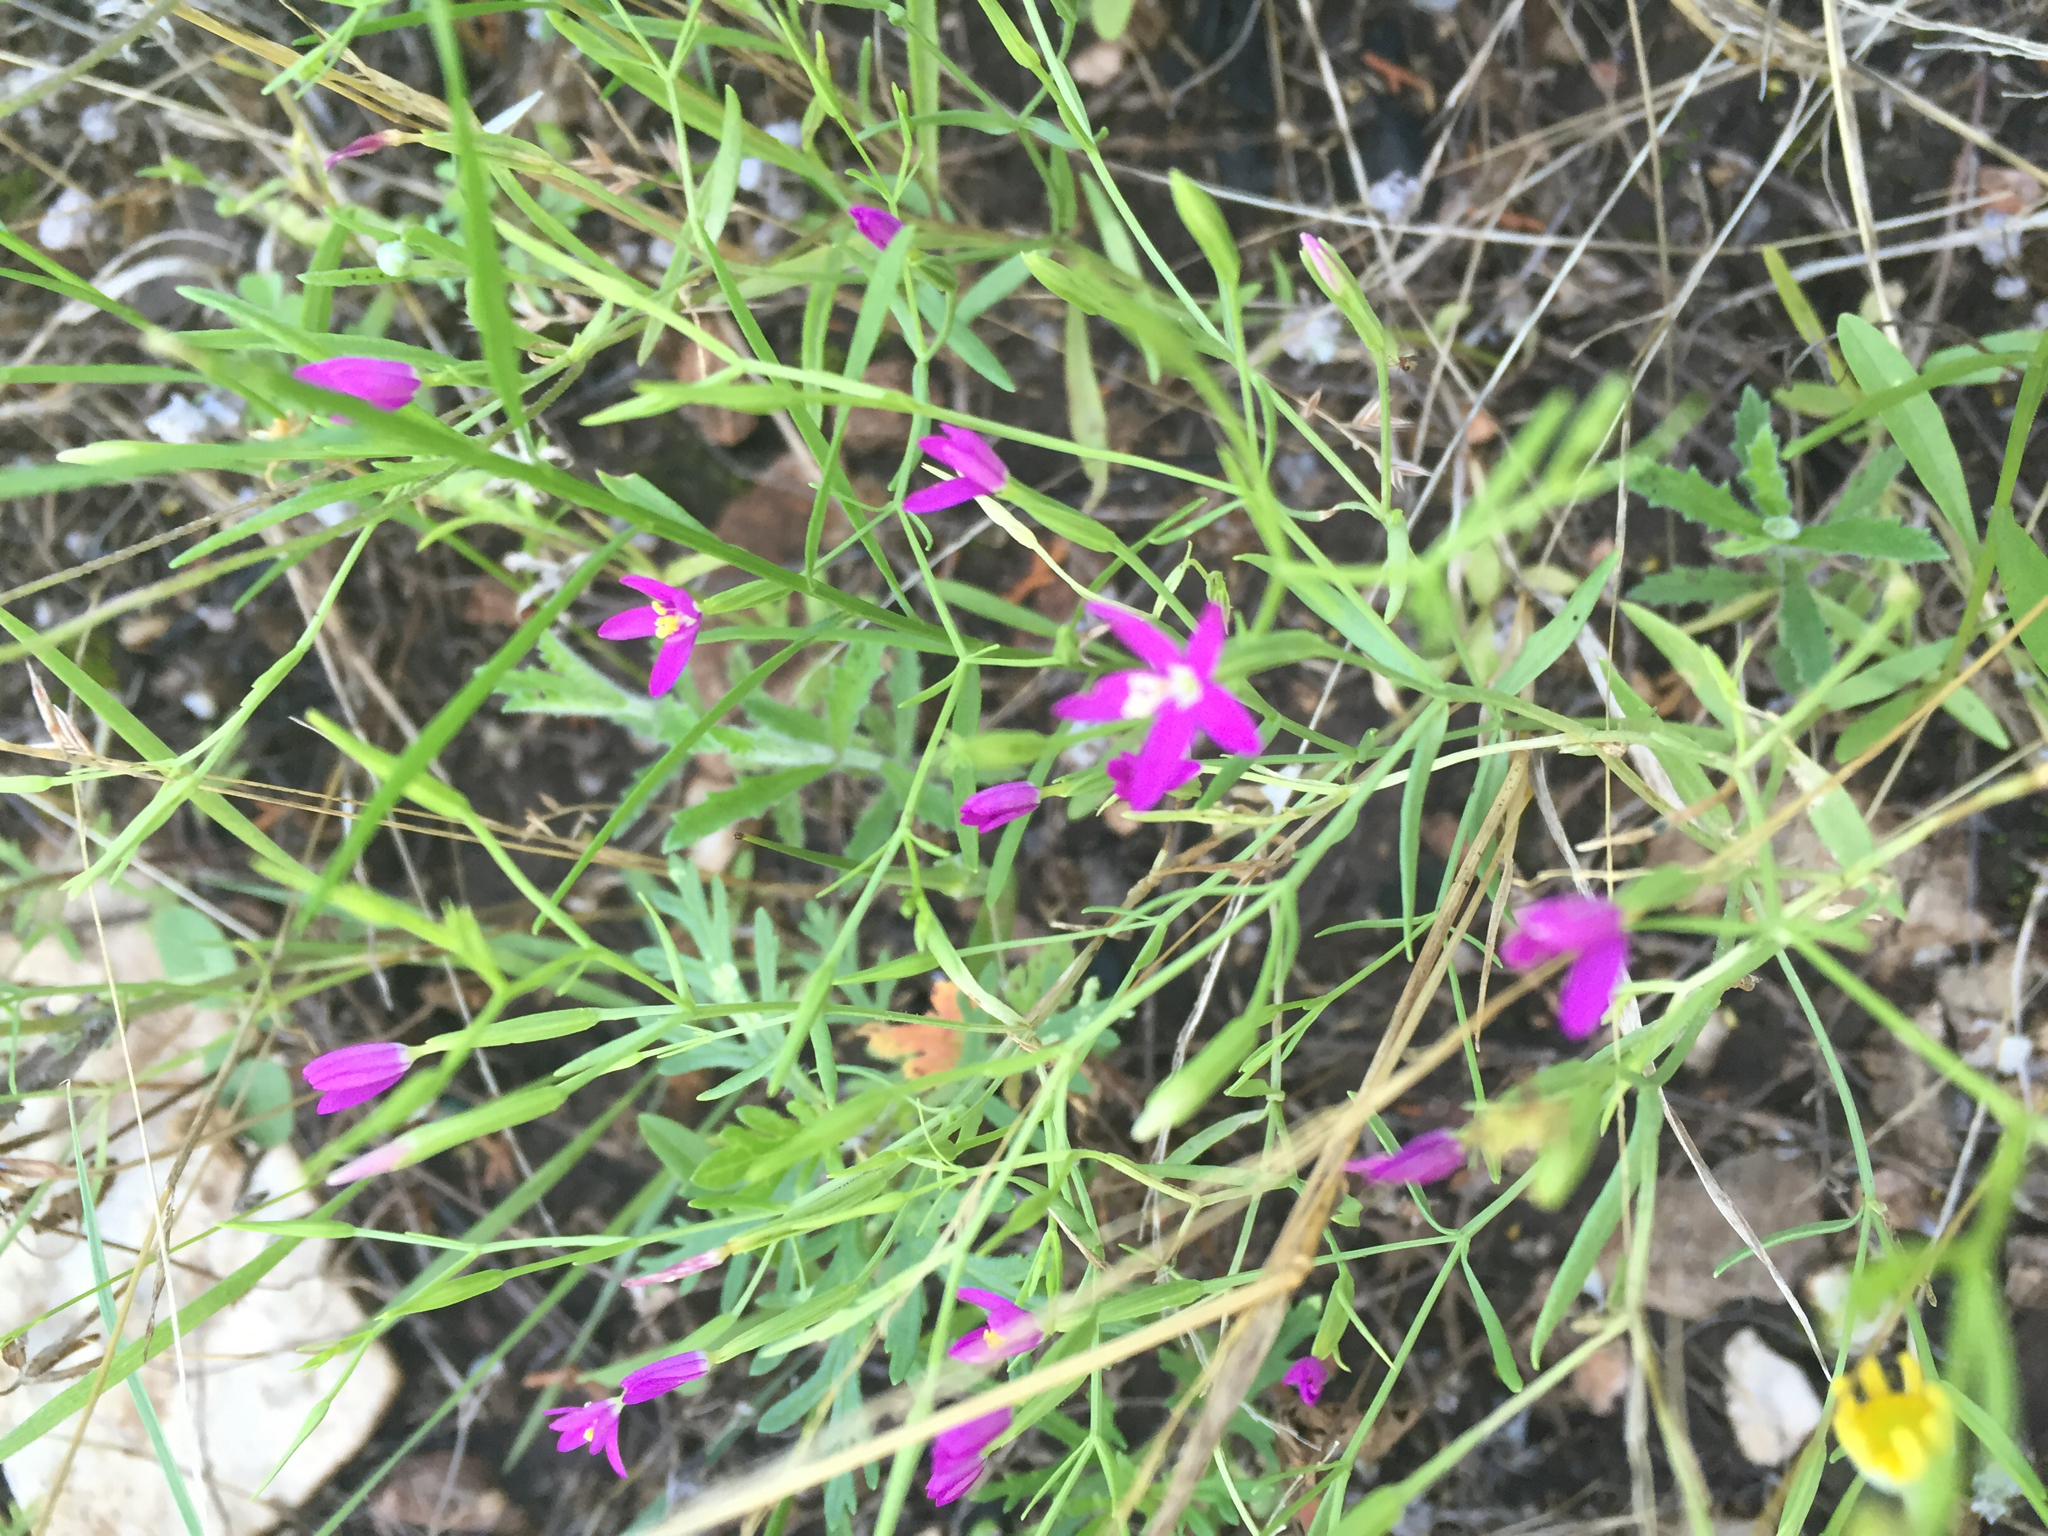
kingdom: Plantae
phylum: Tracheophyta
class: Magnoliopsida
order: Gentianales
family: Gentianaceae
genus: Zeltnera
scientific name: Zeltnera texensis
